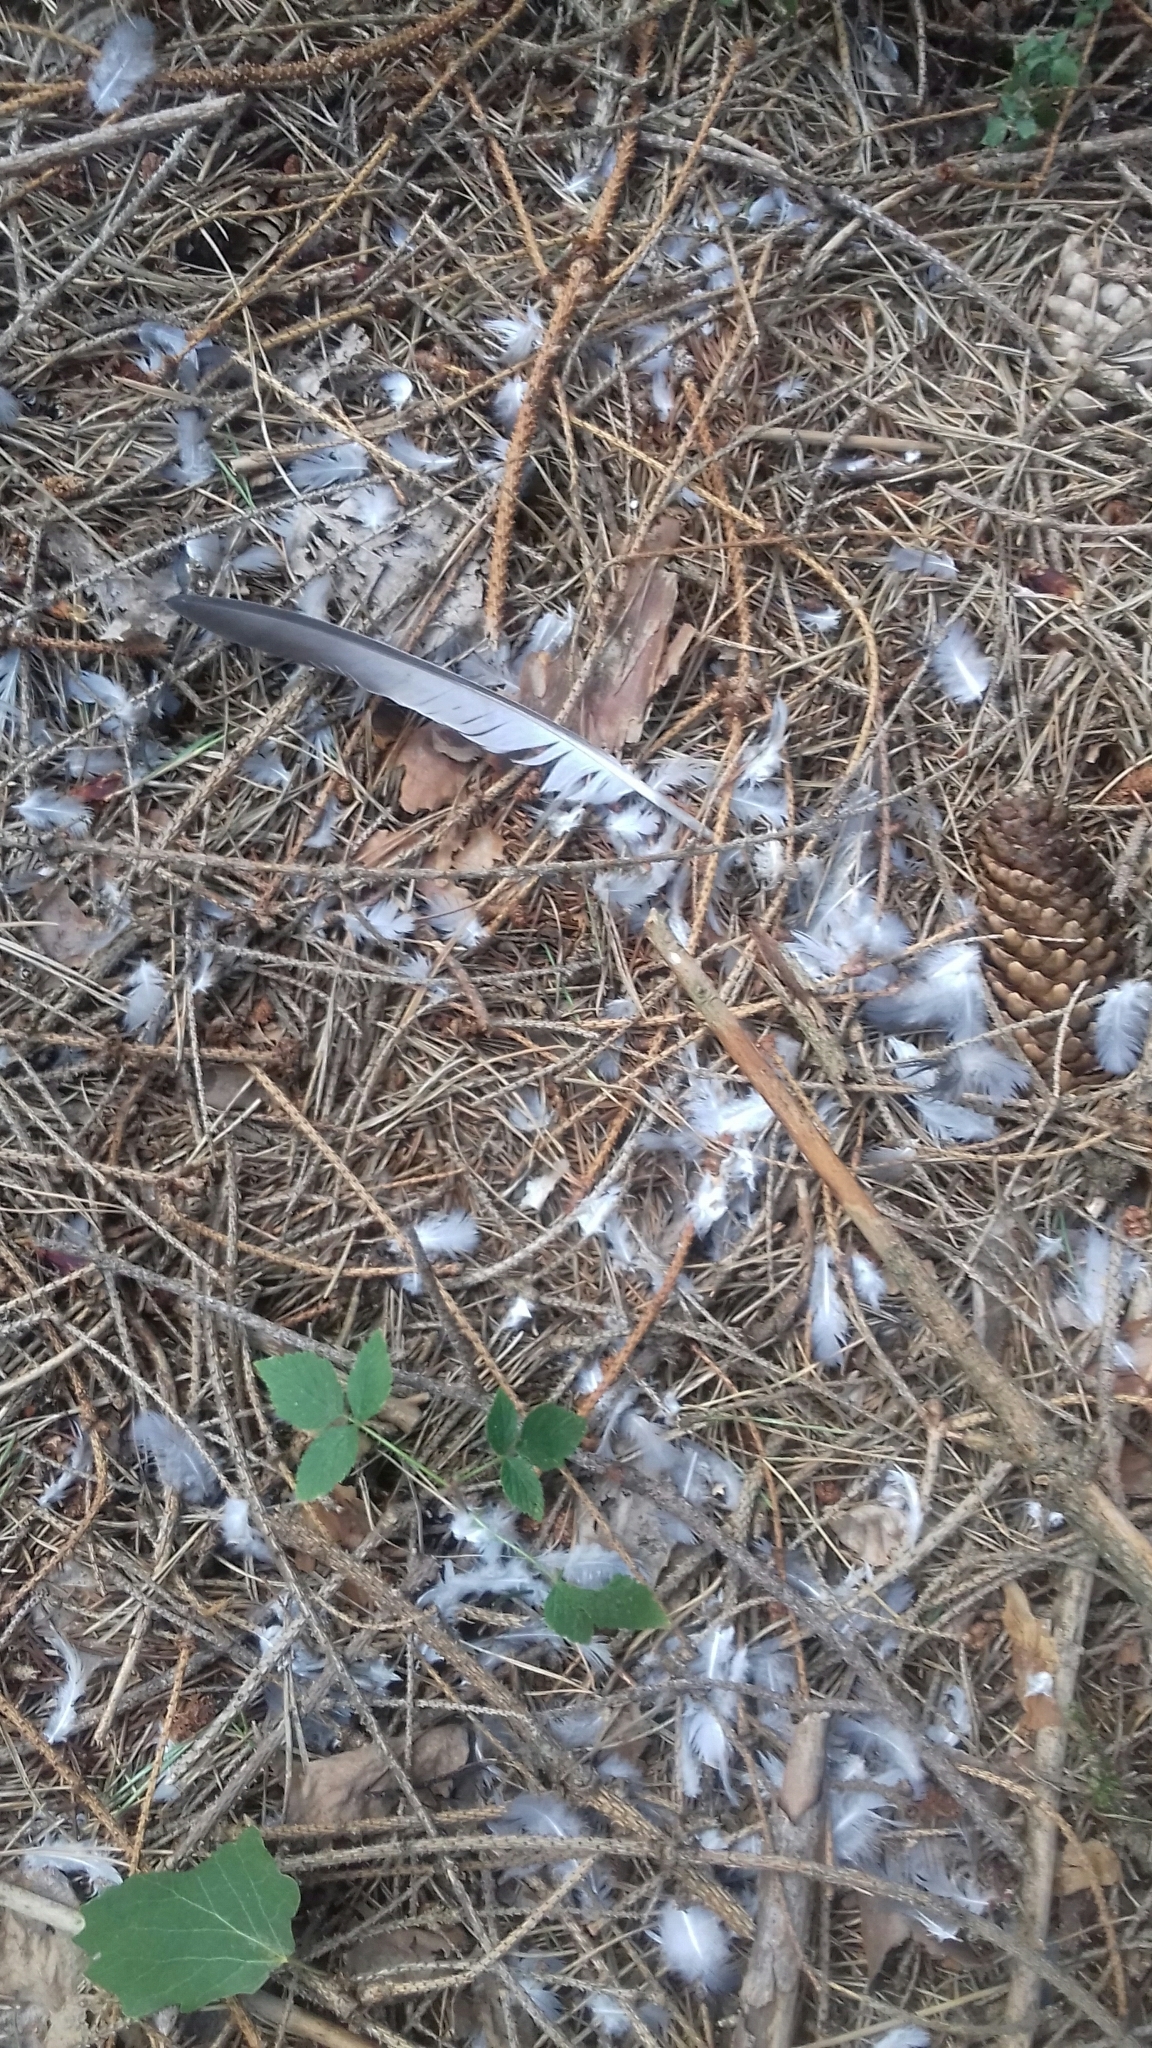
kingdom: Animalia
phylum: Chordata
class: Aves
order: Columbiformes
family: Columbidae
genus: Columba
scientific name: Columba livia
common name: Rock pigeon
